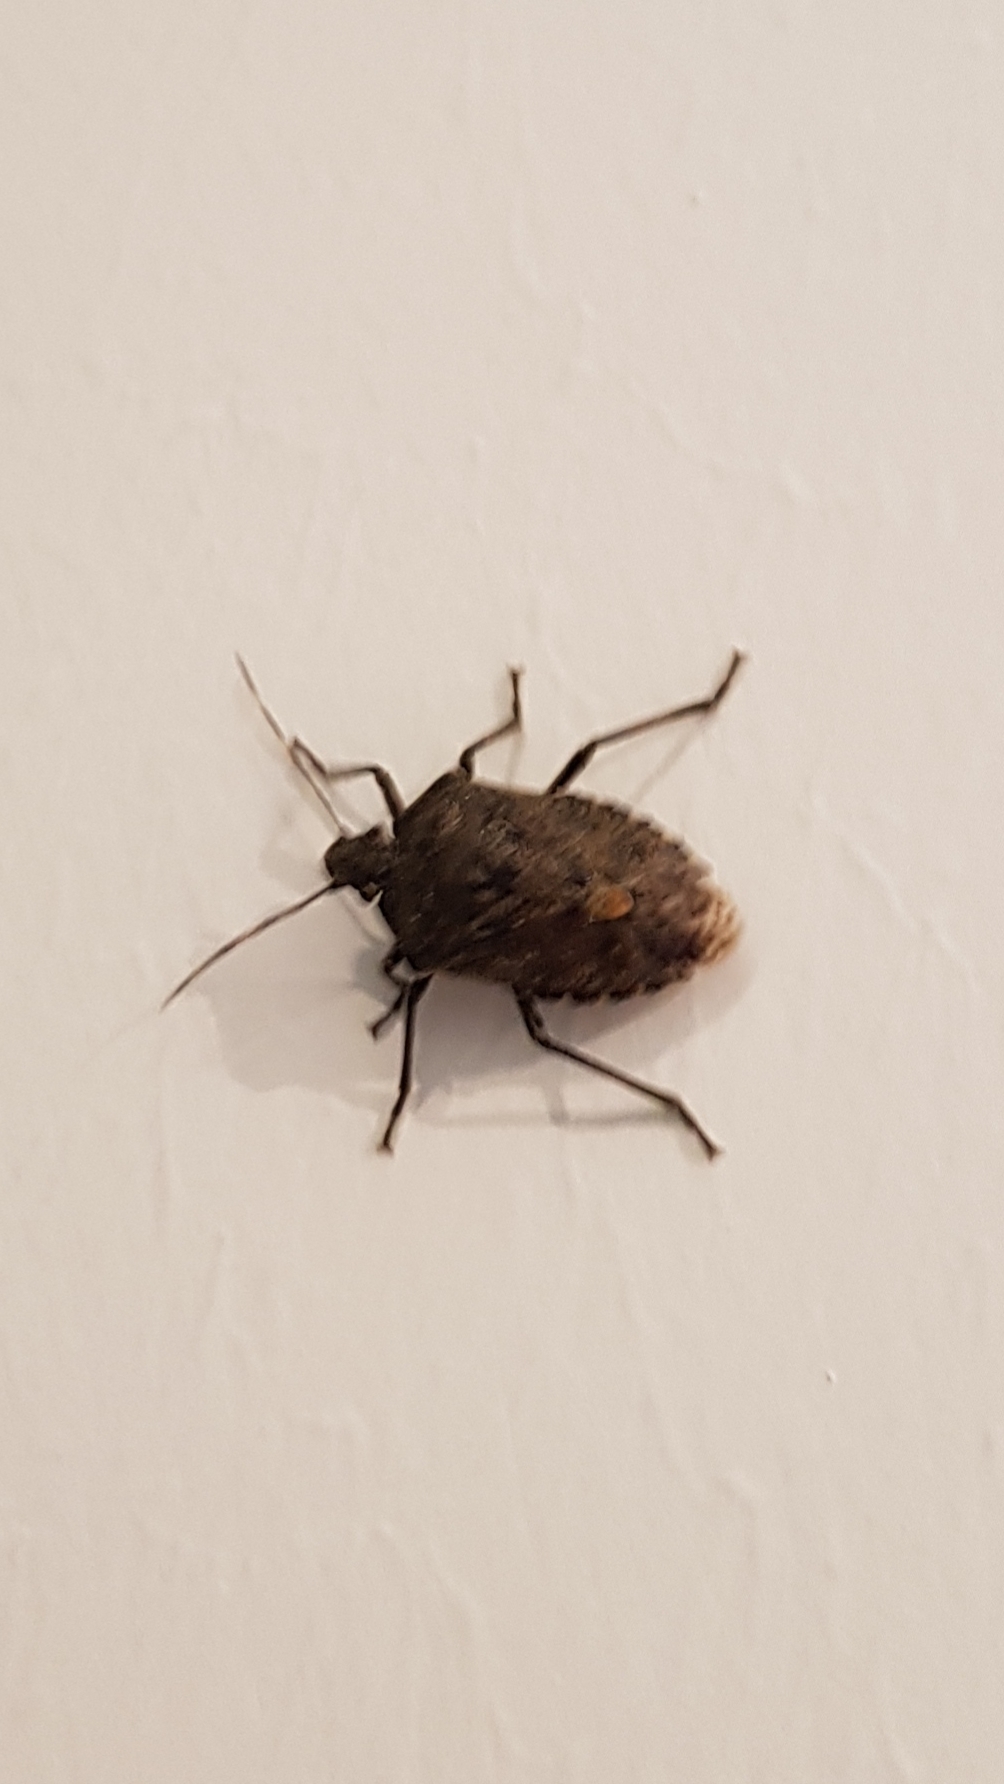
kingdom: Animalia
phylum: Arthropoda
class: Insecta
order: Hemiptera
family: Pentatomidae
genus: Rhaphigaster
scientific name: Rhaphigaster nebulosa
